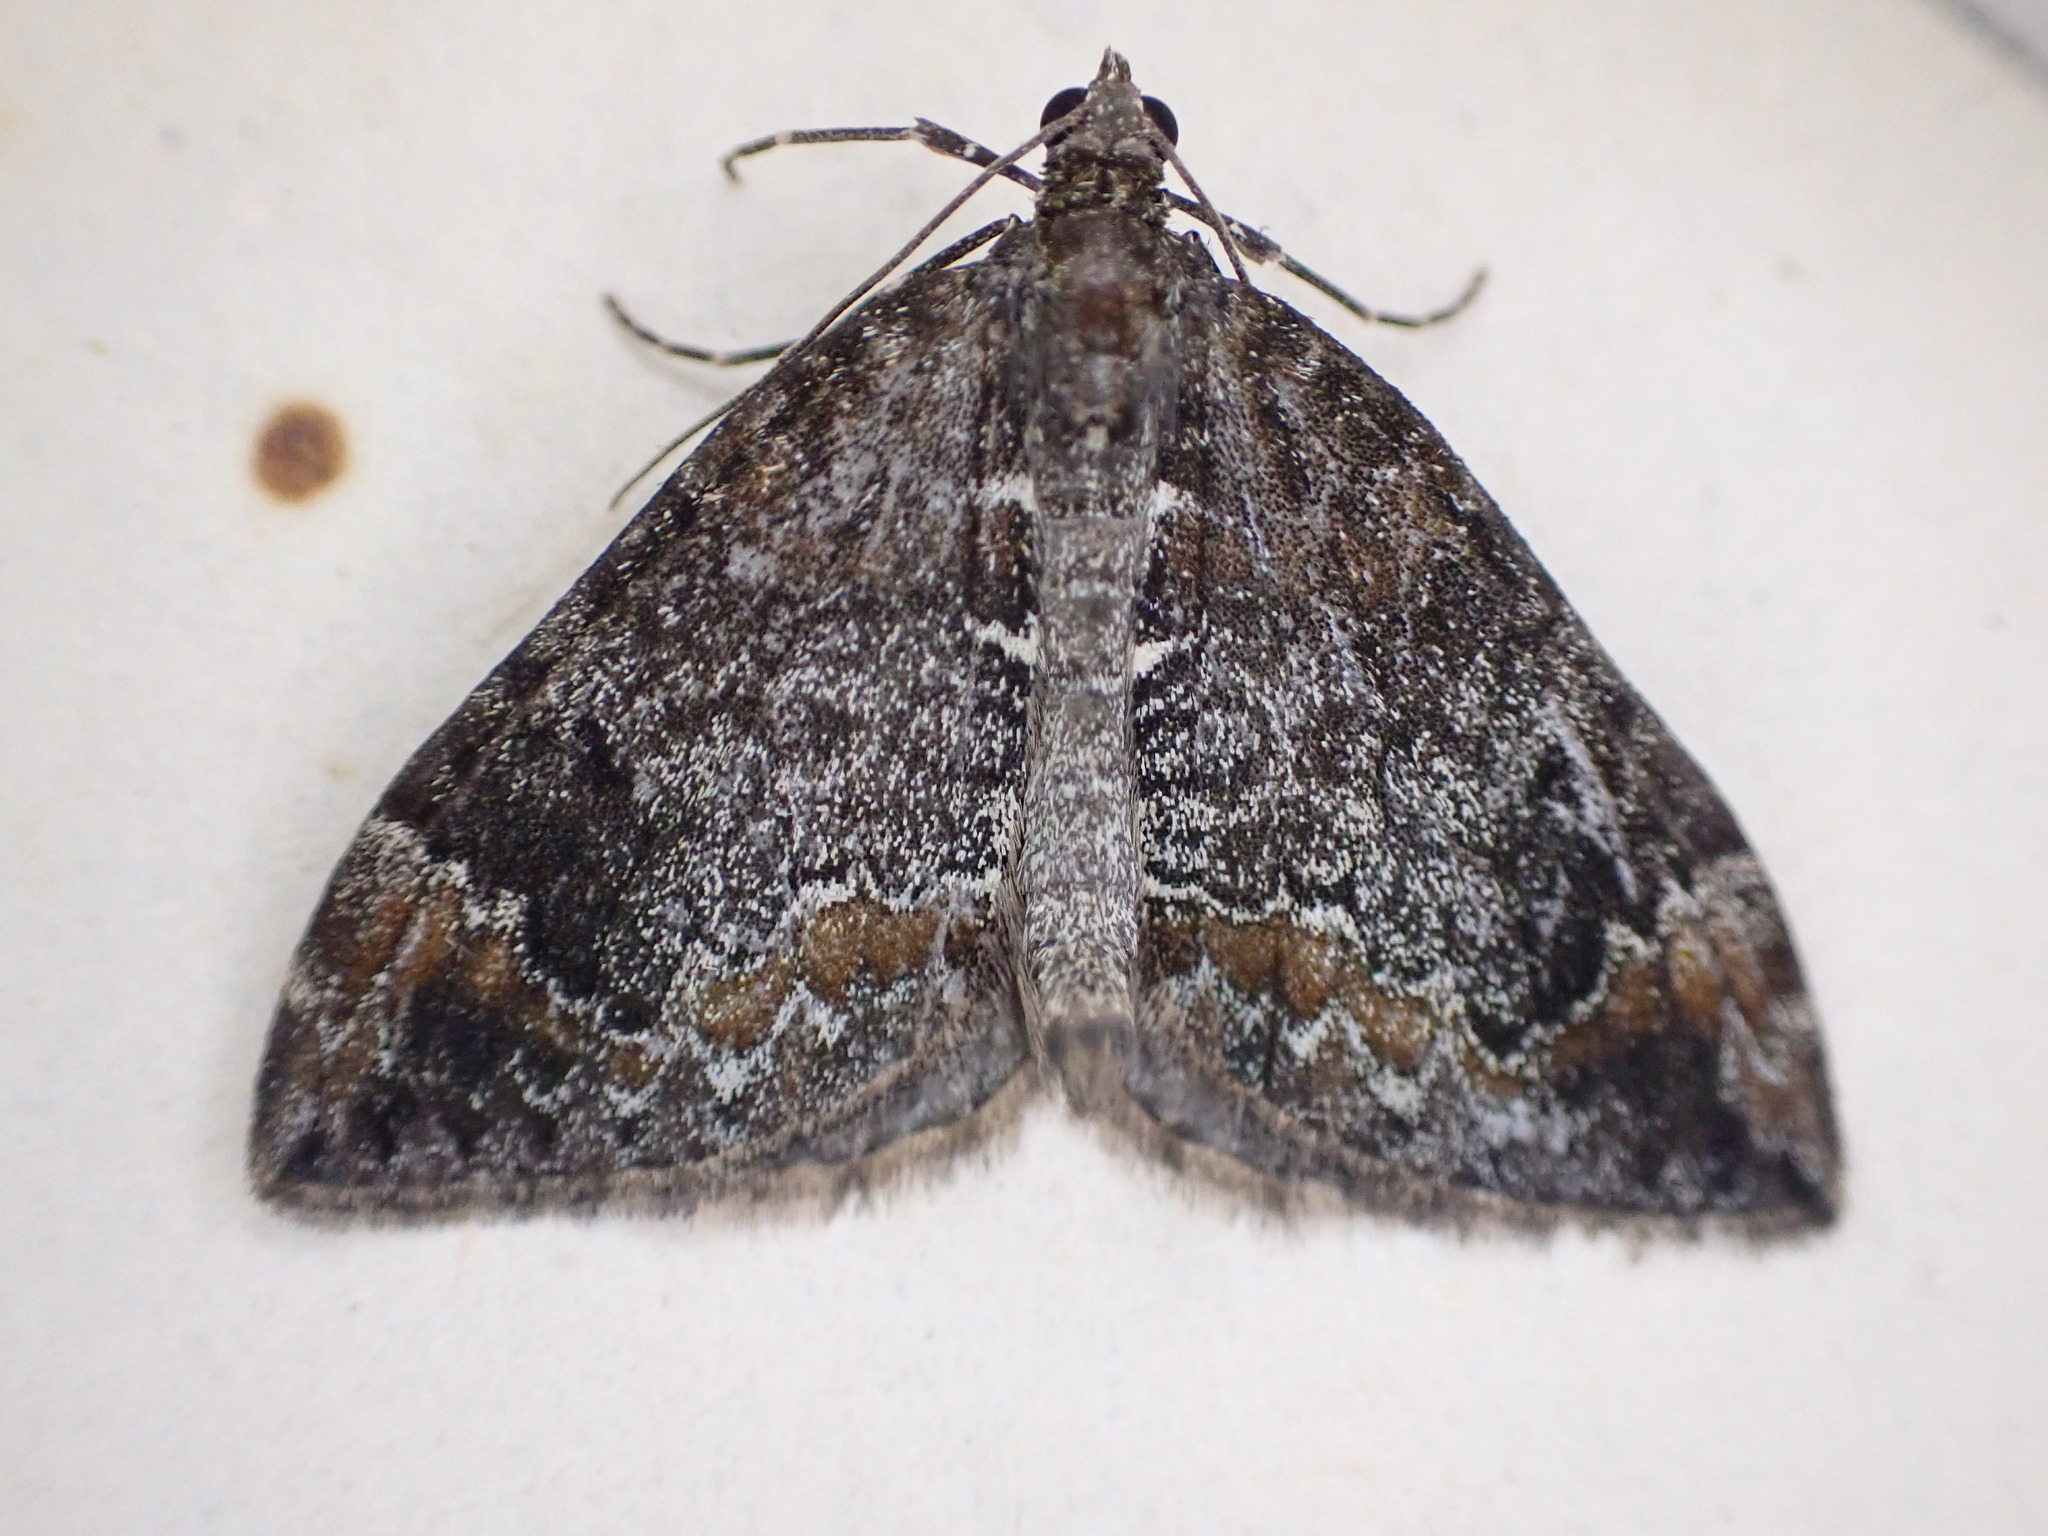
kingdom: Animalia
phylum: Arthropoda
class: Insecta
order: Lepidoptera
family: Geometridae
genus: Dysstroma
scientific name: Dysstroma truncata
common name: Common marbled carpet
